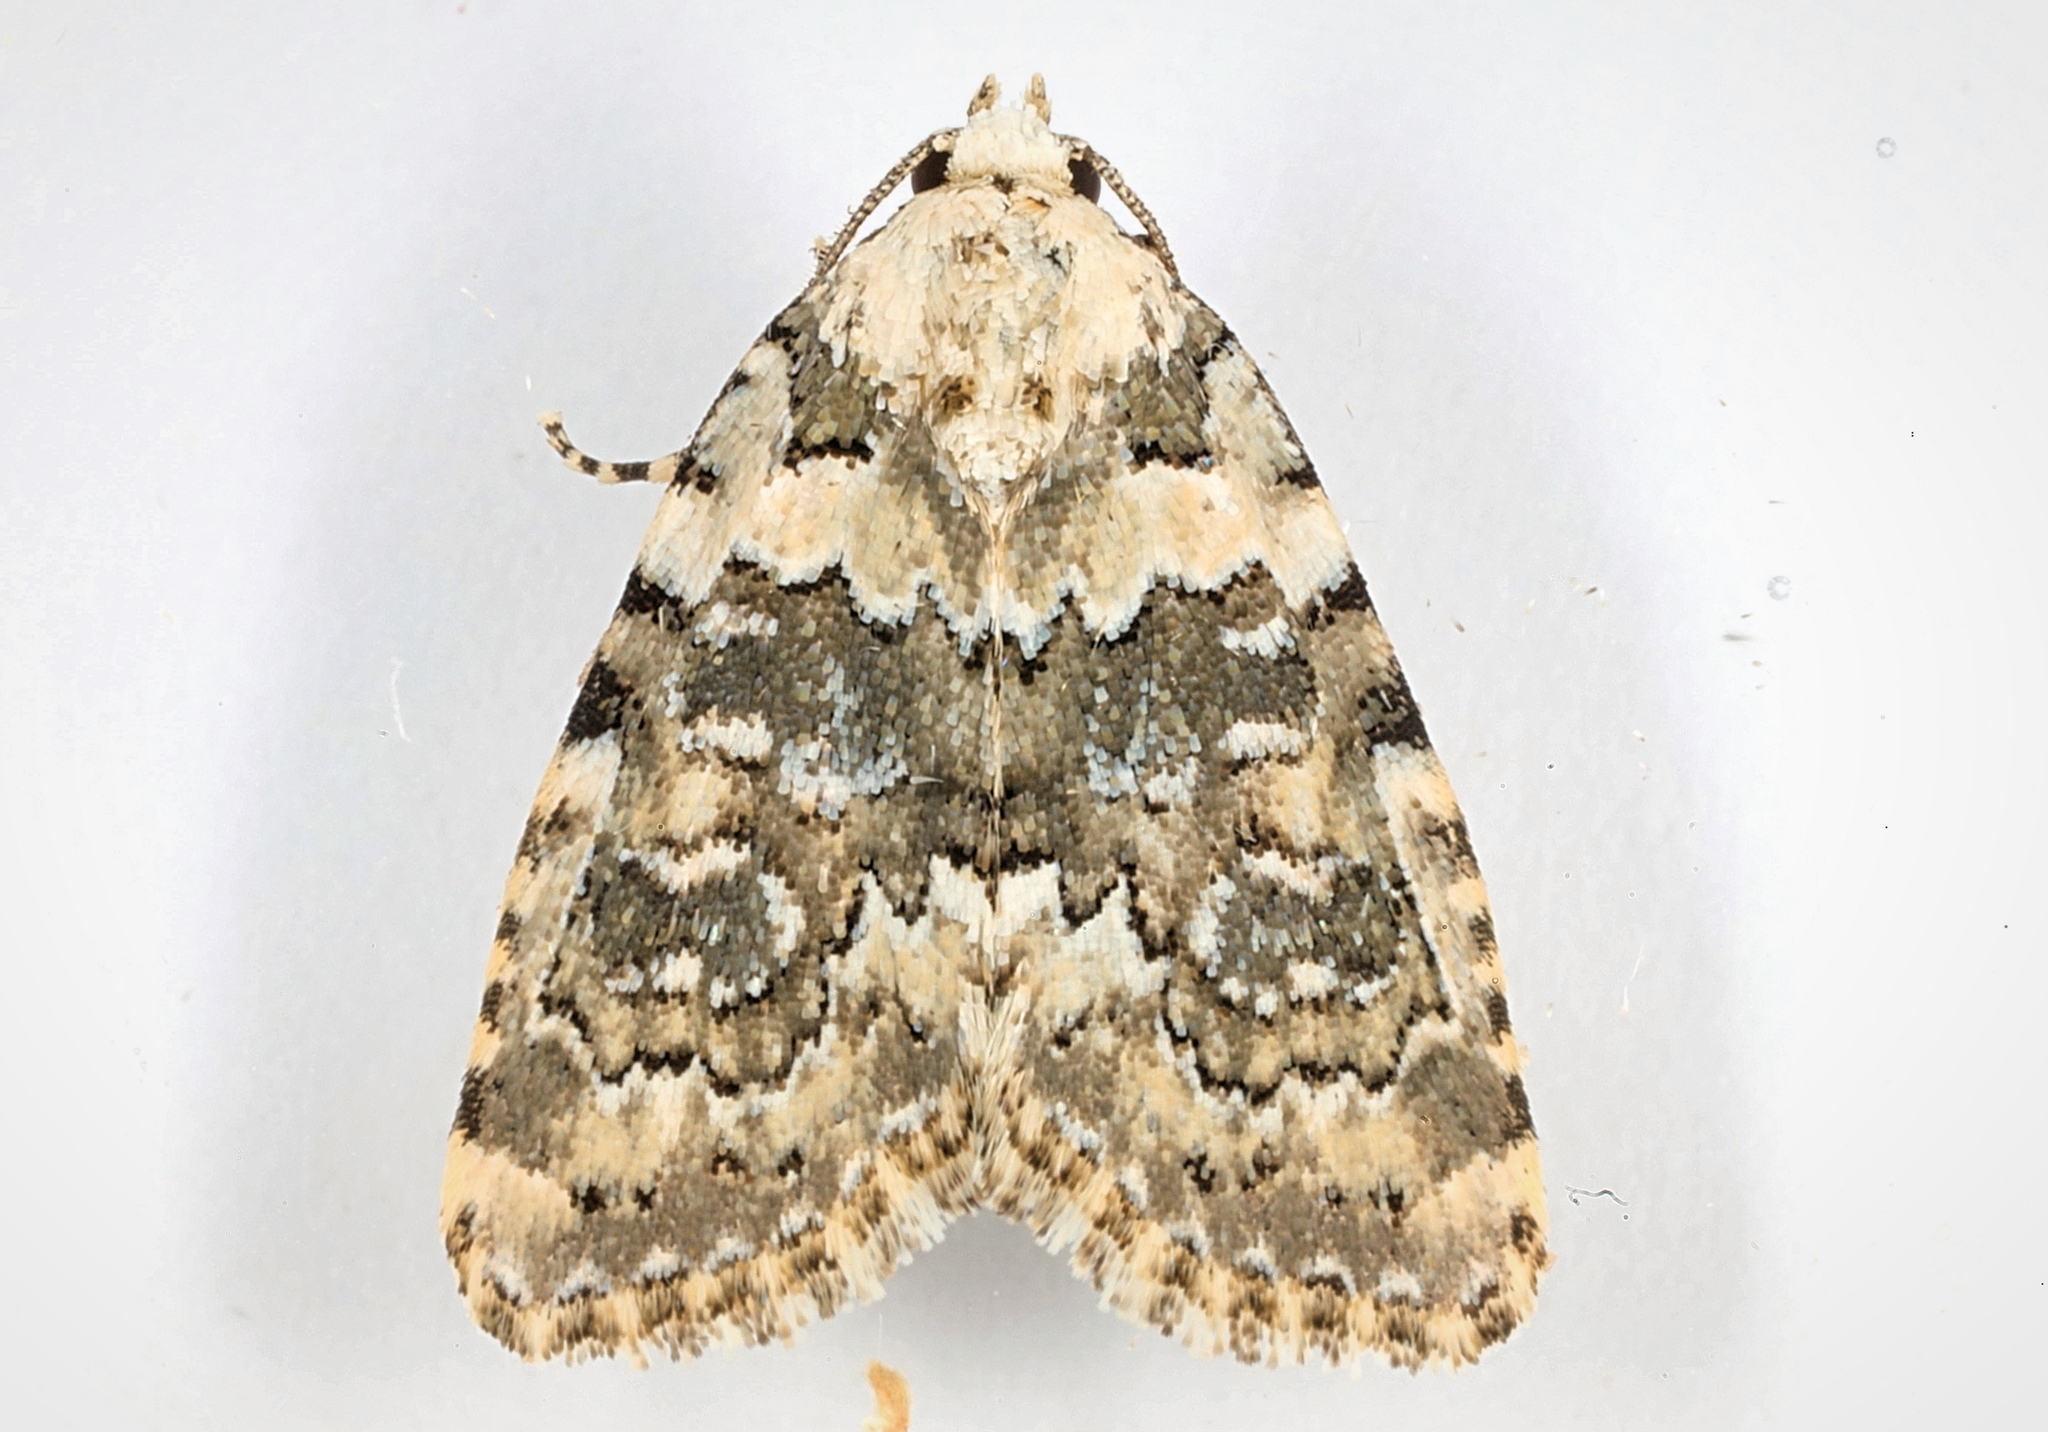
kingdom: Animalia
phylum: Arthropoda
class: Insecta
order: Lepidoptera
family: Noctuidae
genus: Bryophila
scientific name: Bryophila domestica
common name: Marbled beauty
